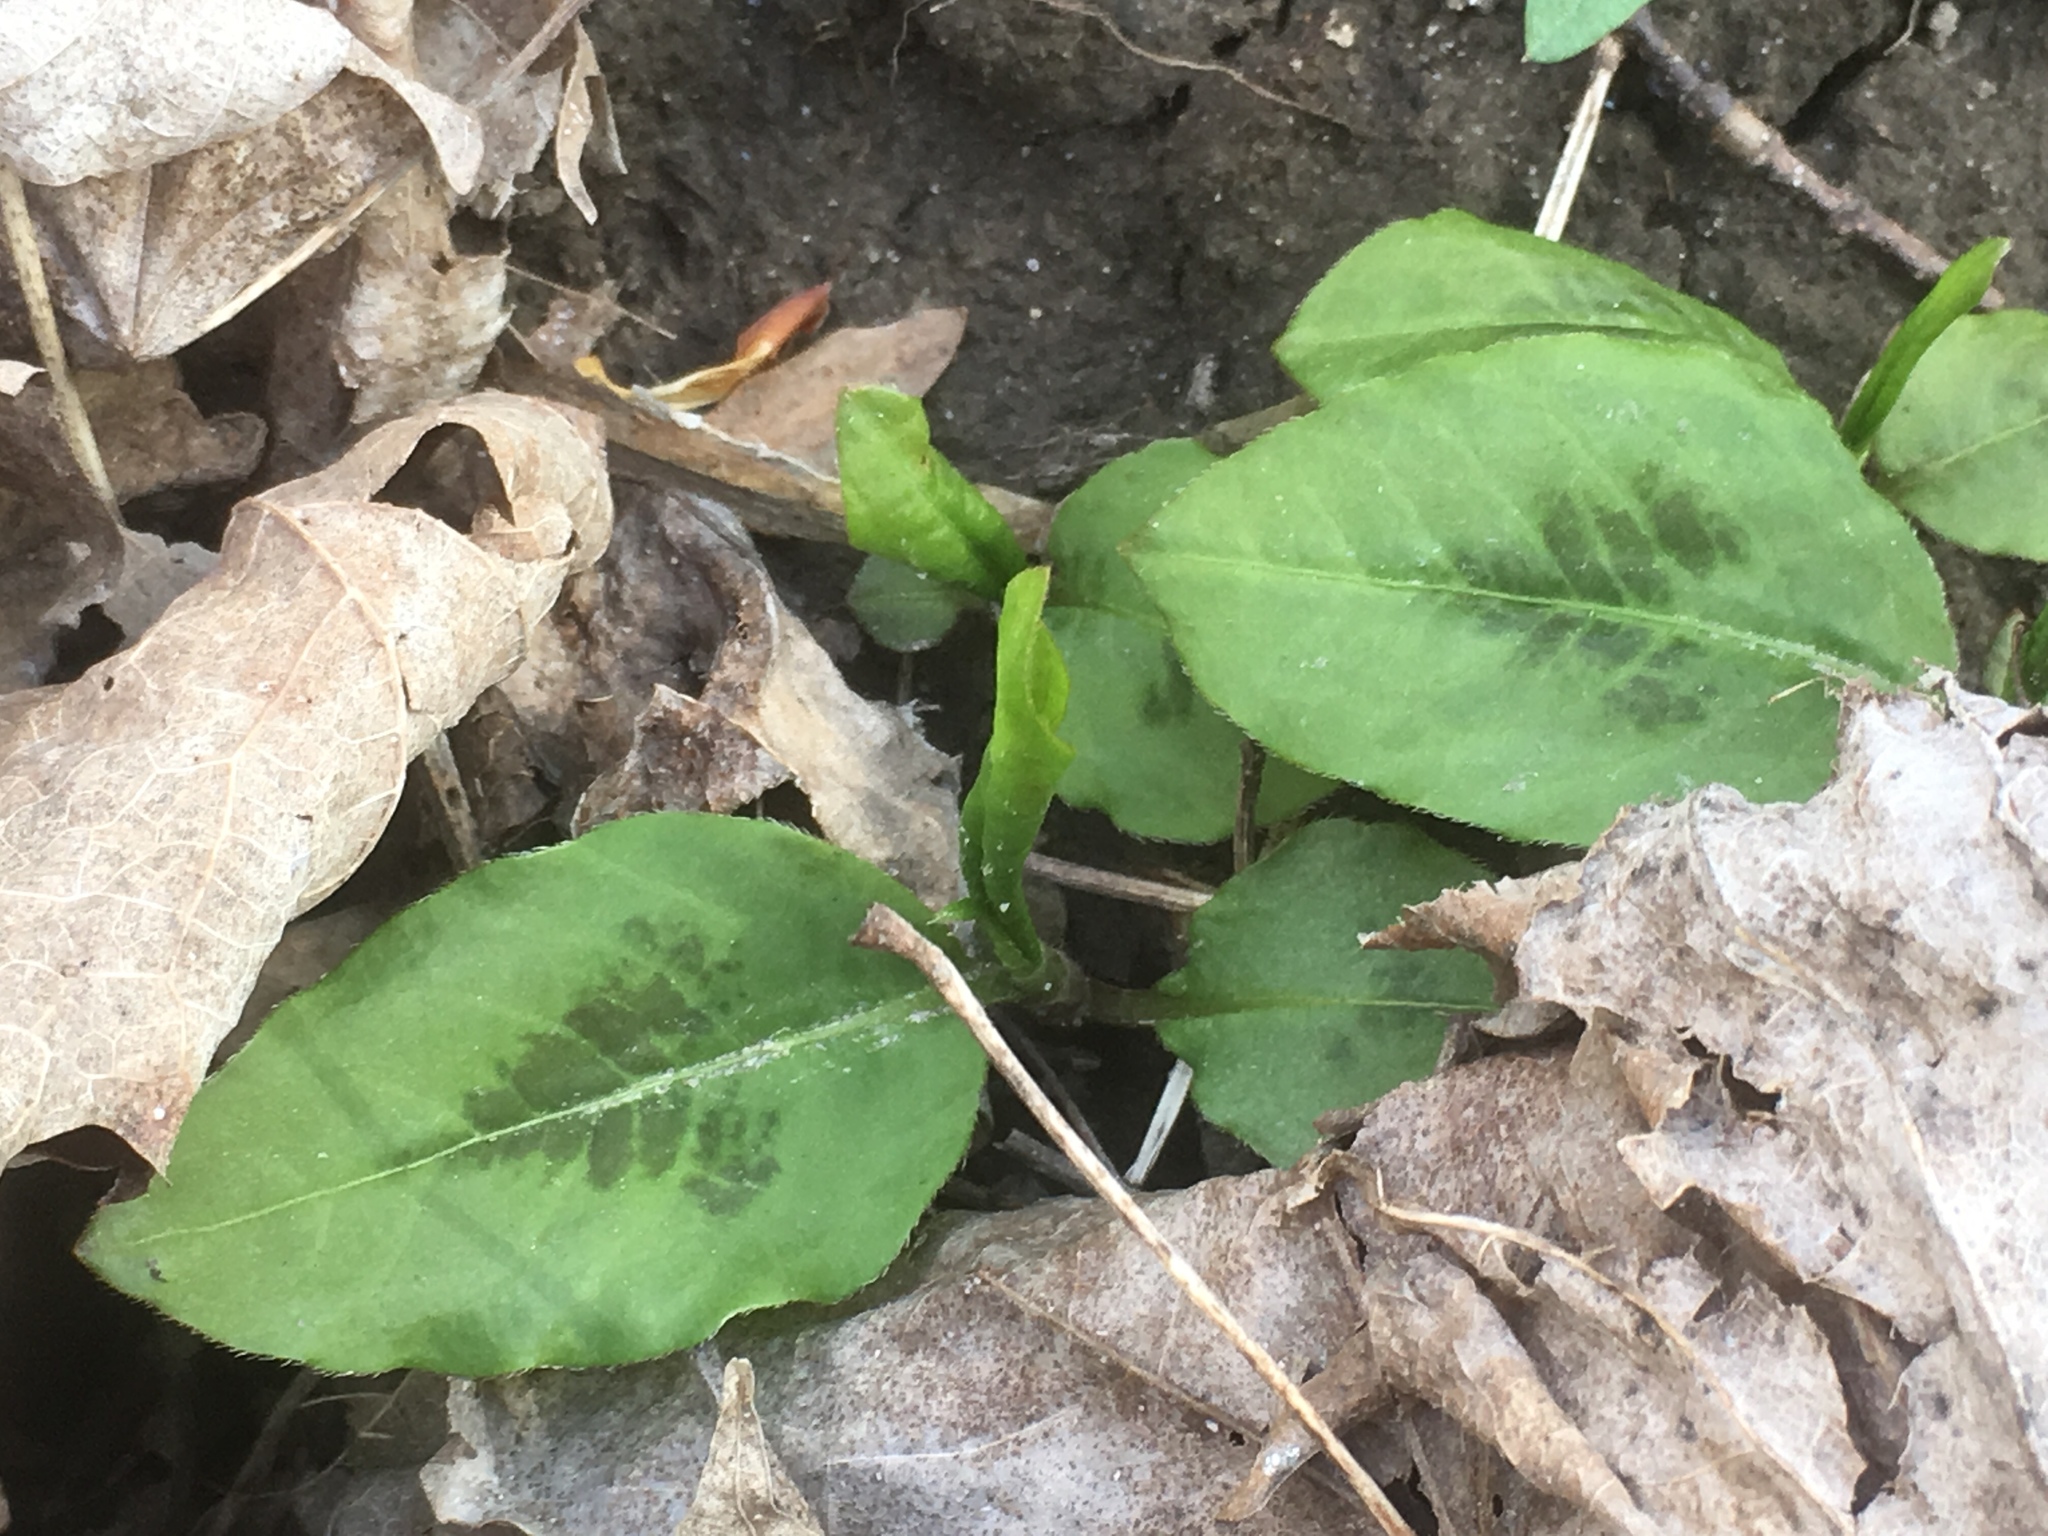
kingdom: Plantae
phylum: Tracheophyta
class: Magnoliopsida
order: Caryophyllales
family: Polygonaceae
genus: Persicaria
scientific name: Persicaria virginiana
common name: Jumpseed
